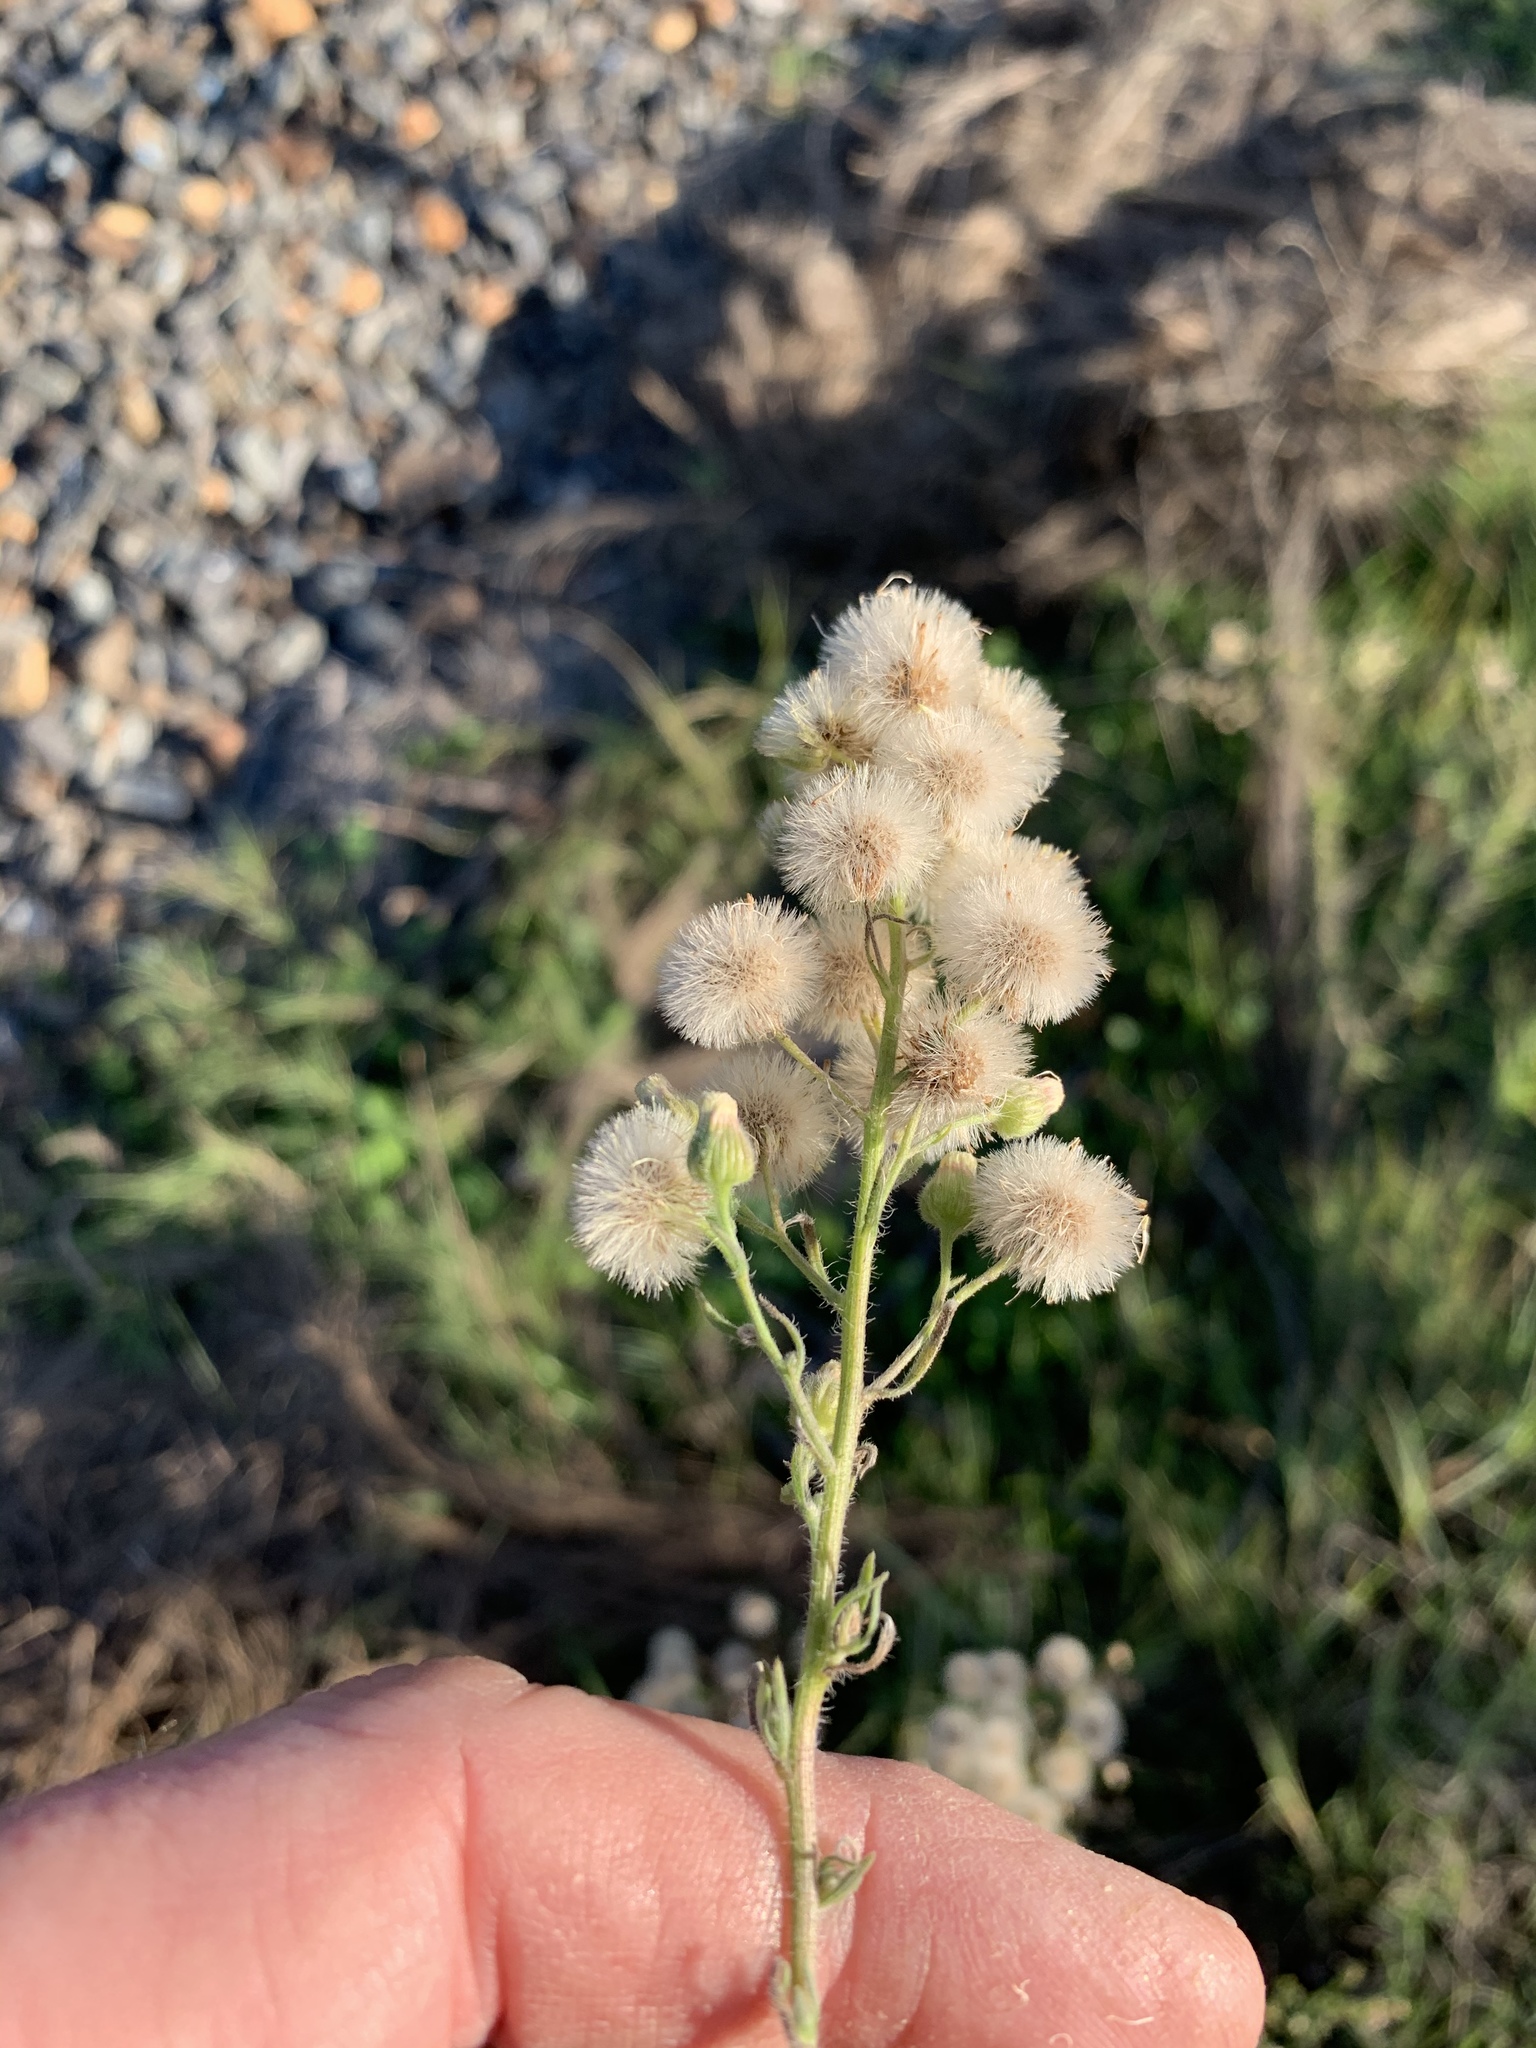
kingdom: Plantae
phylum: Tracheophyta
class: Magnoliopsida
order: Asterales
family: Asteraceae
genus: Erigeron
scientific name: Erigeron bonariensis
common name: Argentine fleabane
